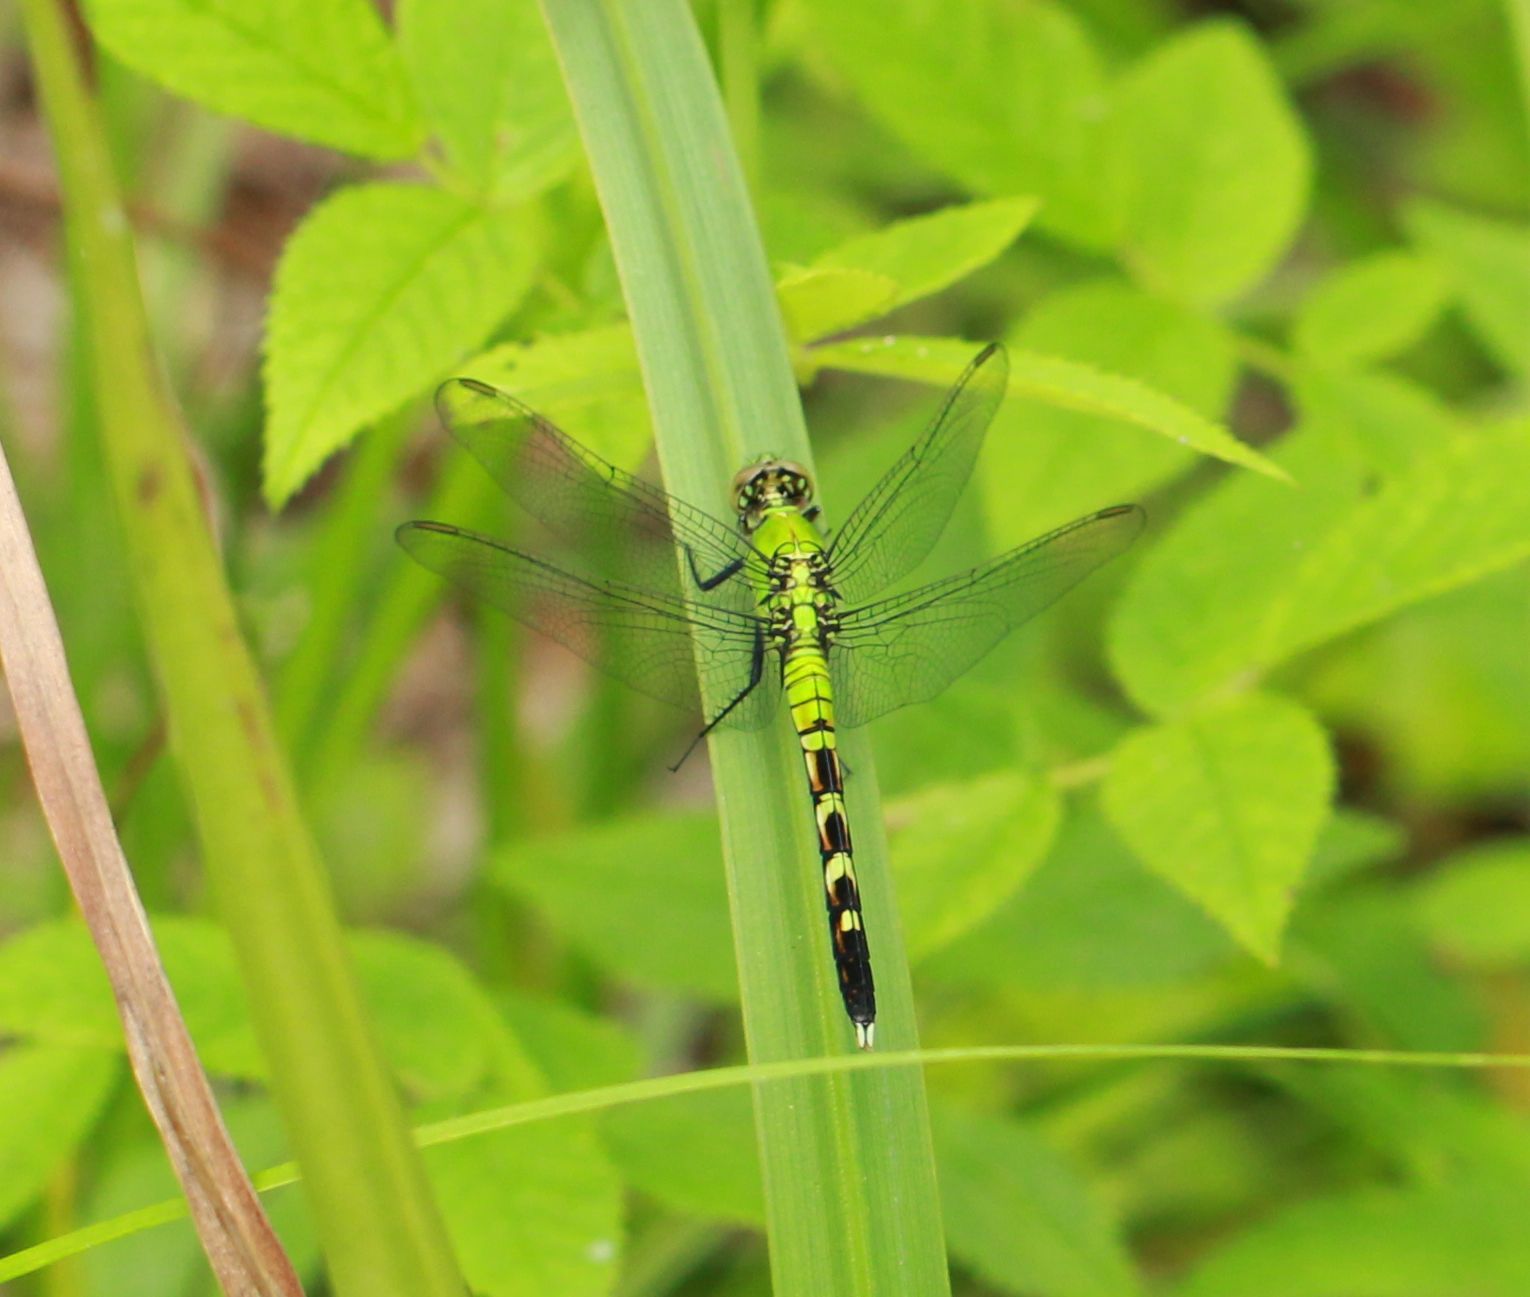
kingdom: Animalia
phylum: Arthropoda
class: Insecta
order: Odonata
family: Libellulidae
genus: Erythemis
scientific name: Erythemis simplicicollis
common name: Eastern pondhawk
